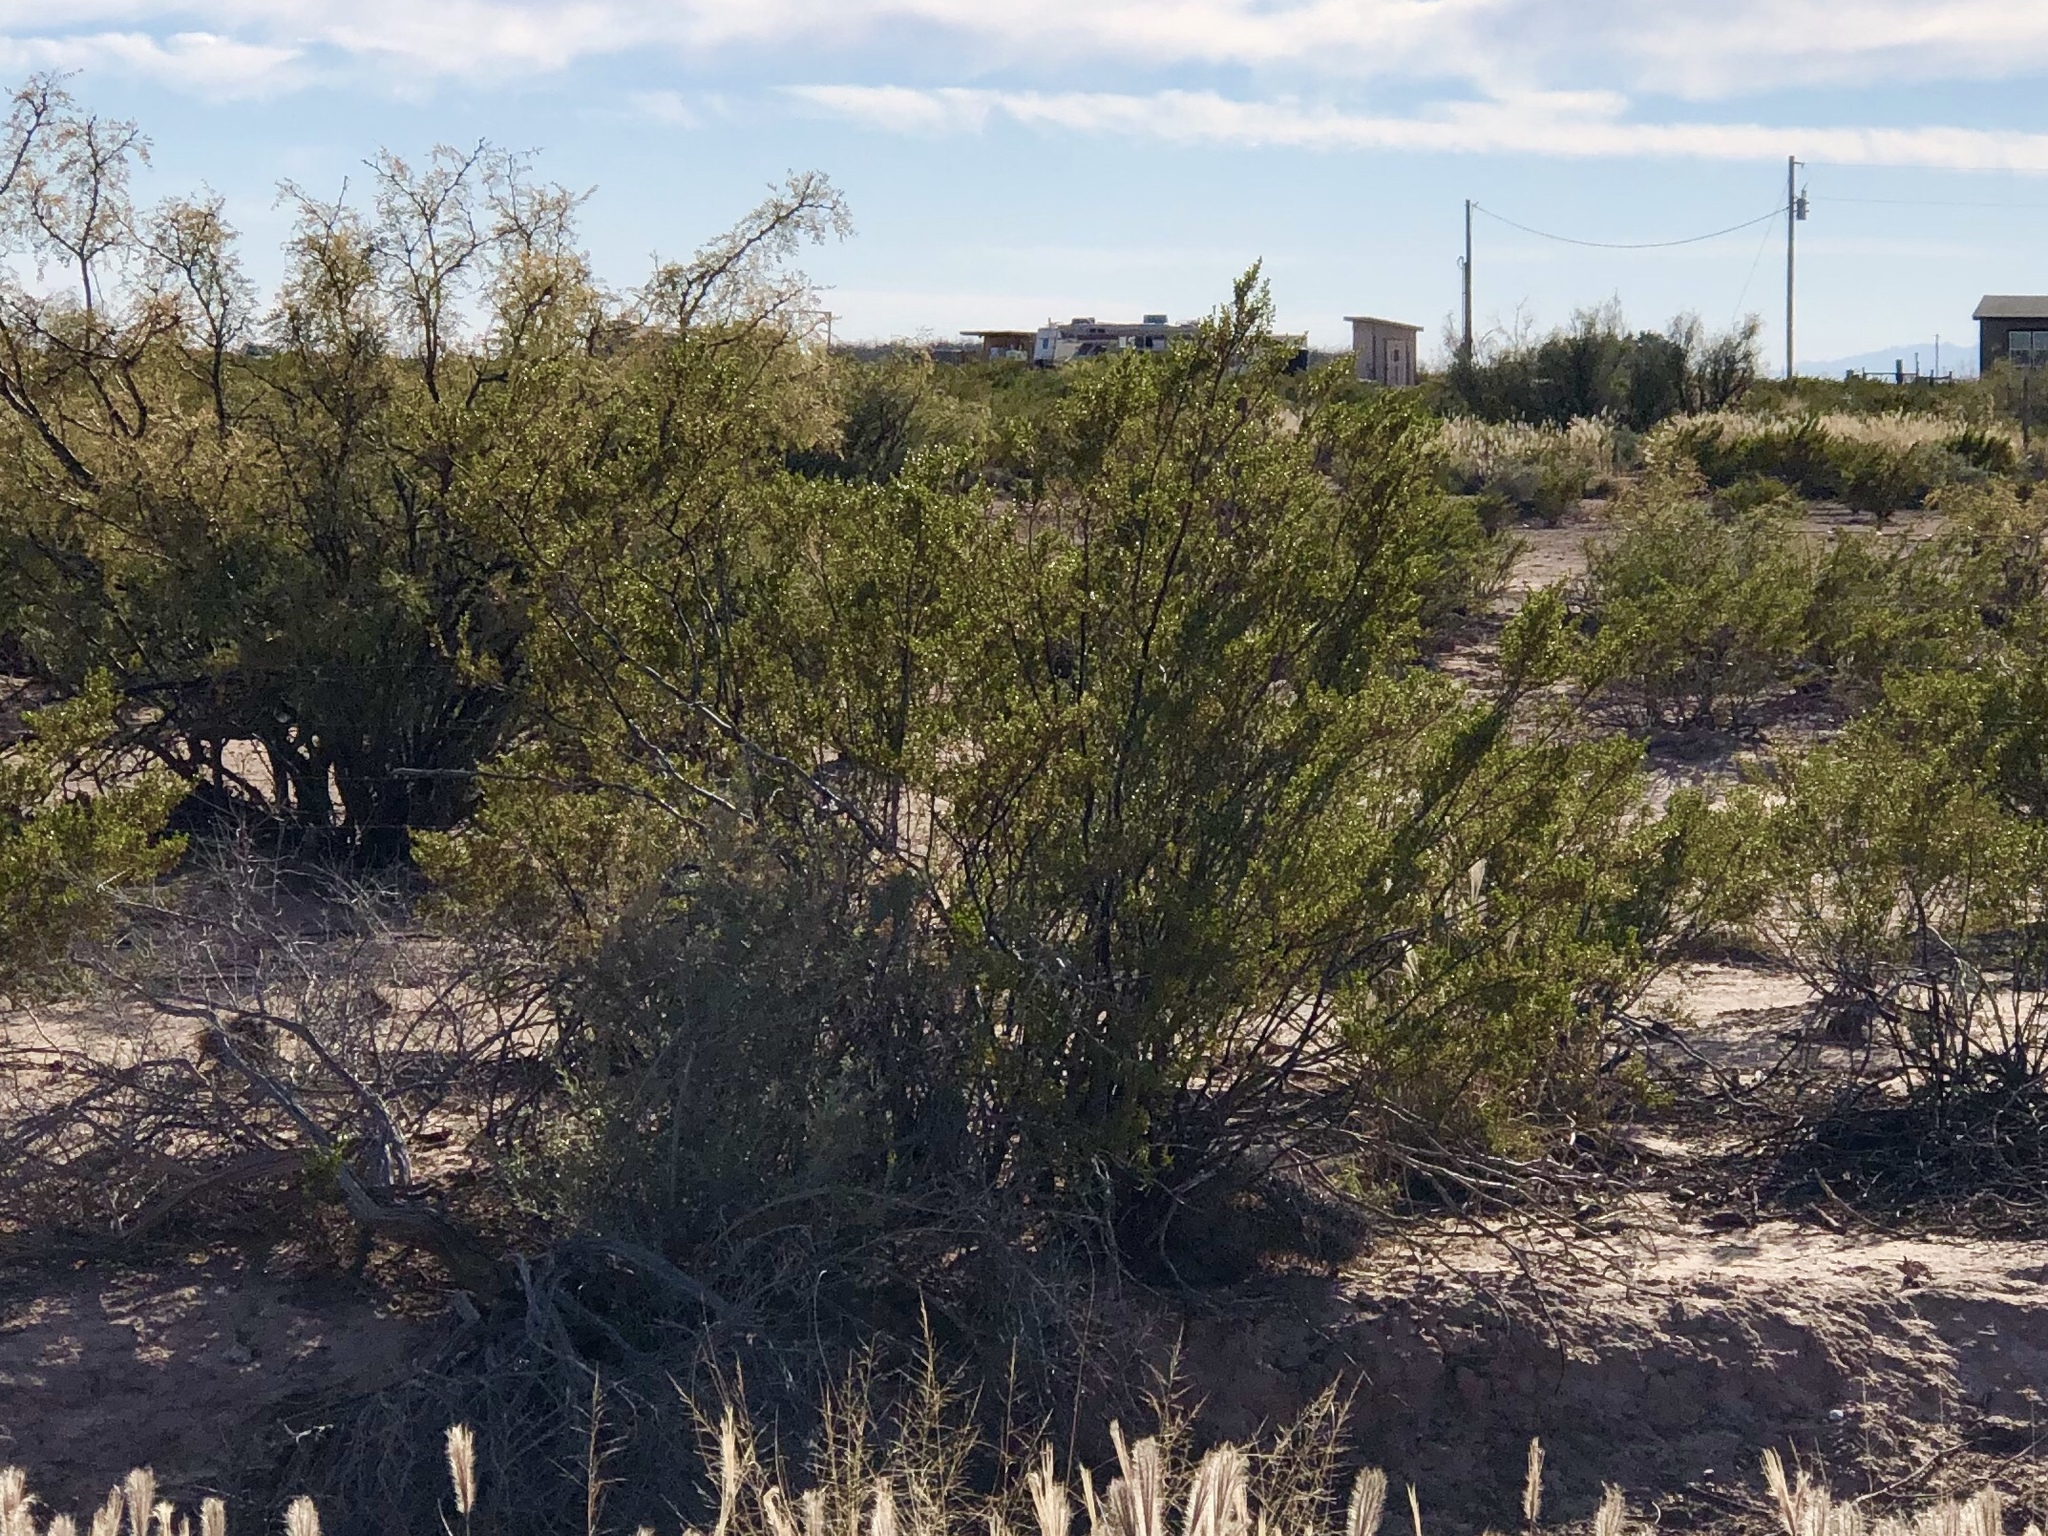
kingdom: Plantae
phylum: Tracheophyta
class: Magnoliopsida
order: Zygophyllales
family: Zygophyllaceae
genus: Larrea
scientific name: Larrea tridentata
